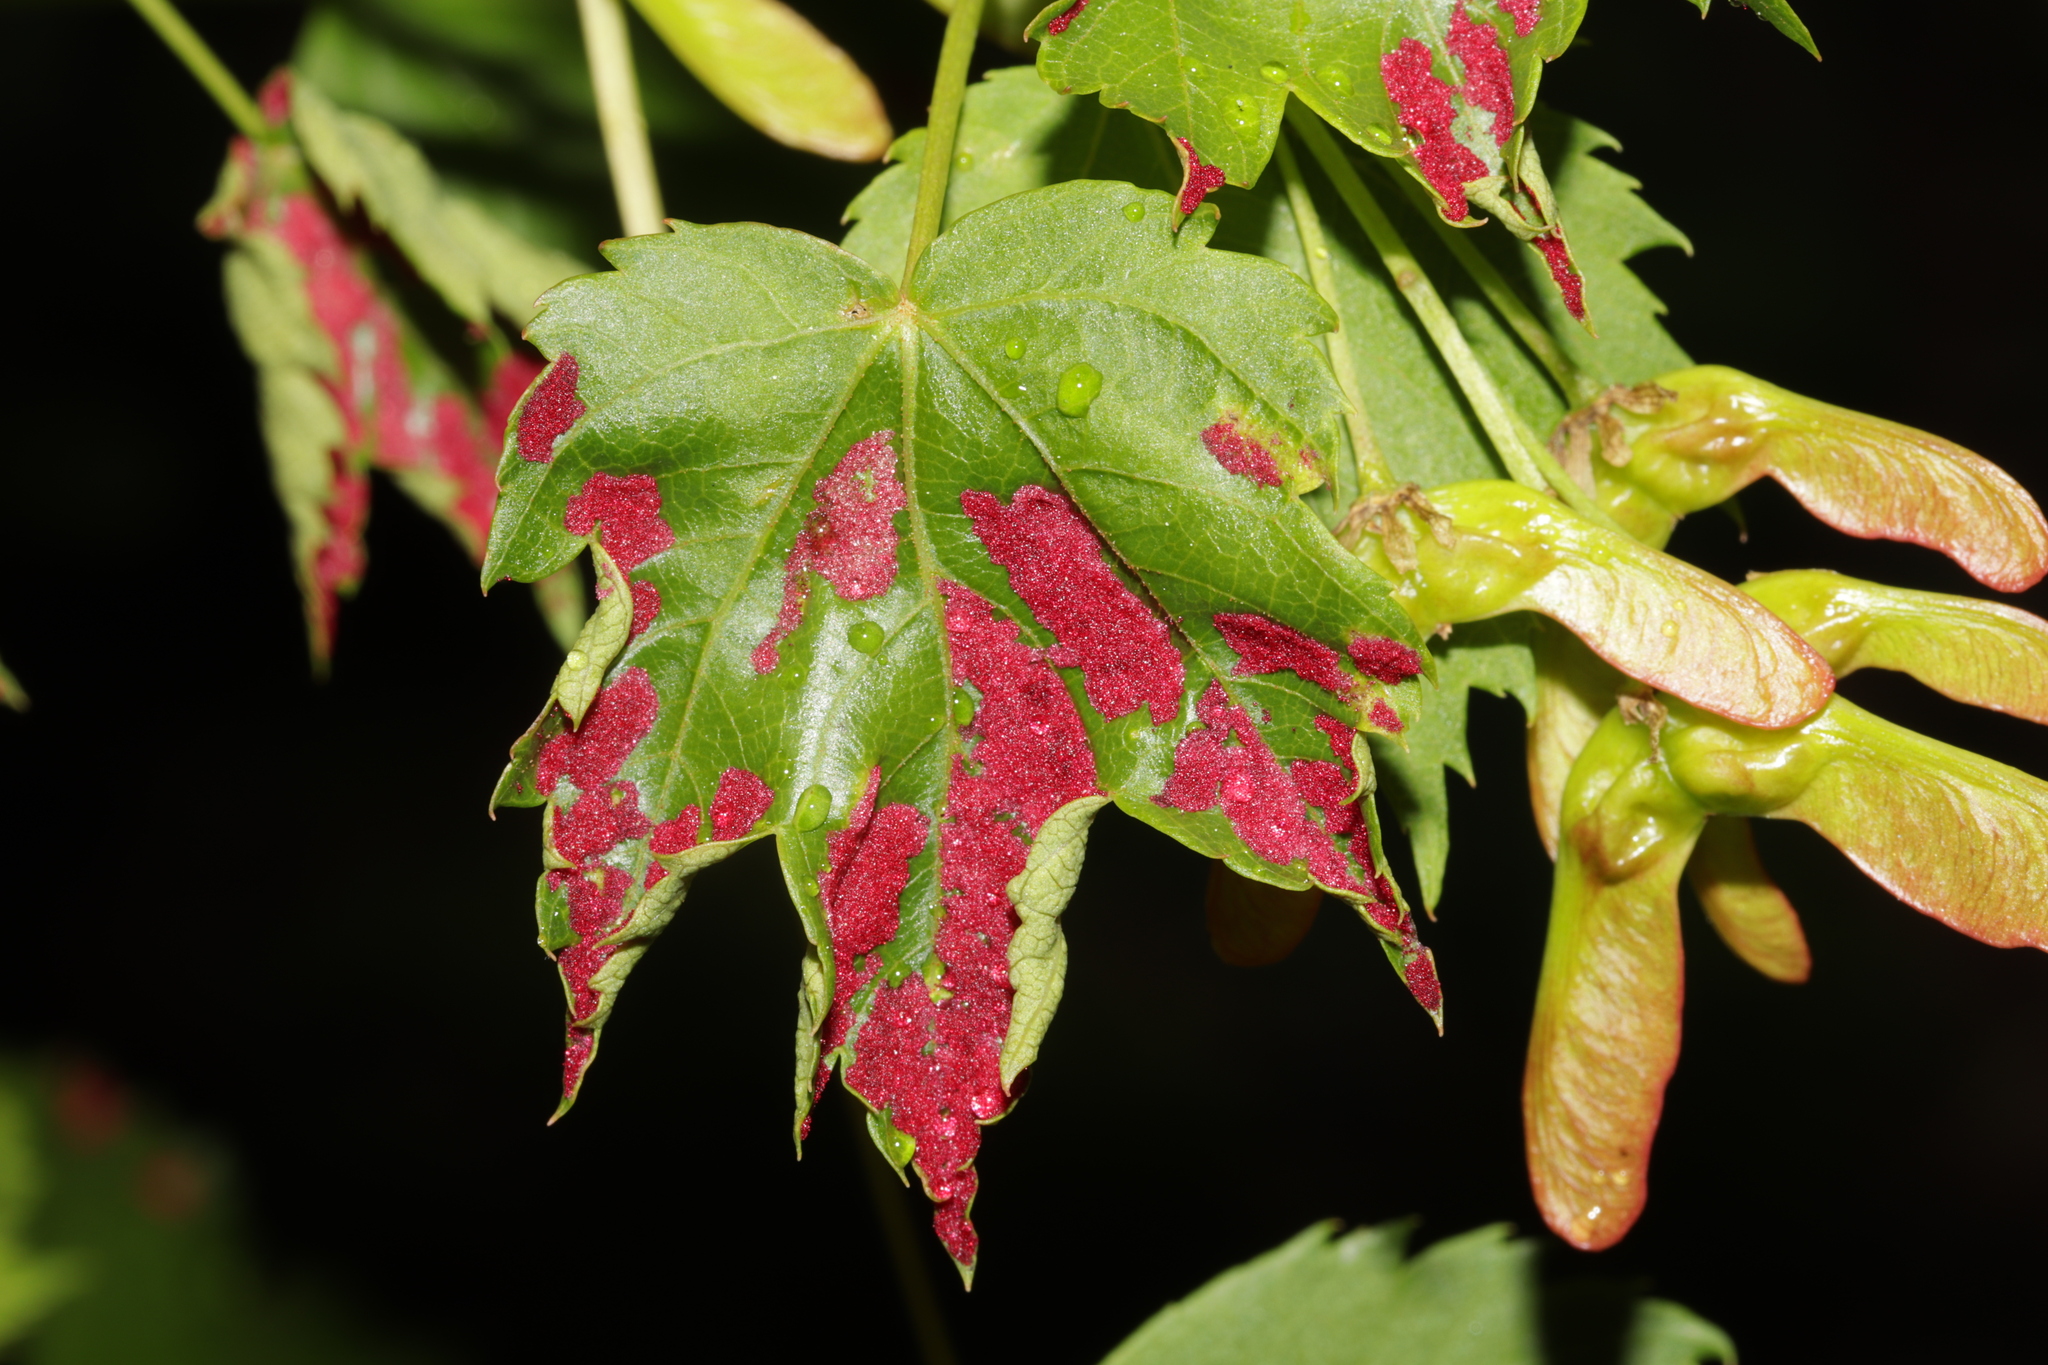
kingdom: Animalia
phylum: Arthropoda
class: Arachnida
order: Trombidiformes
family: Eriophyidae
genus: Aceria
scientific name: Aceria
